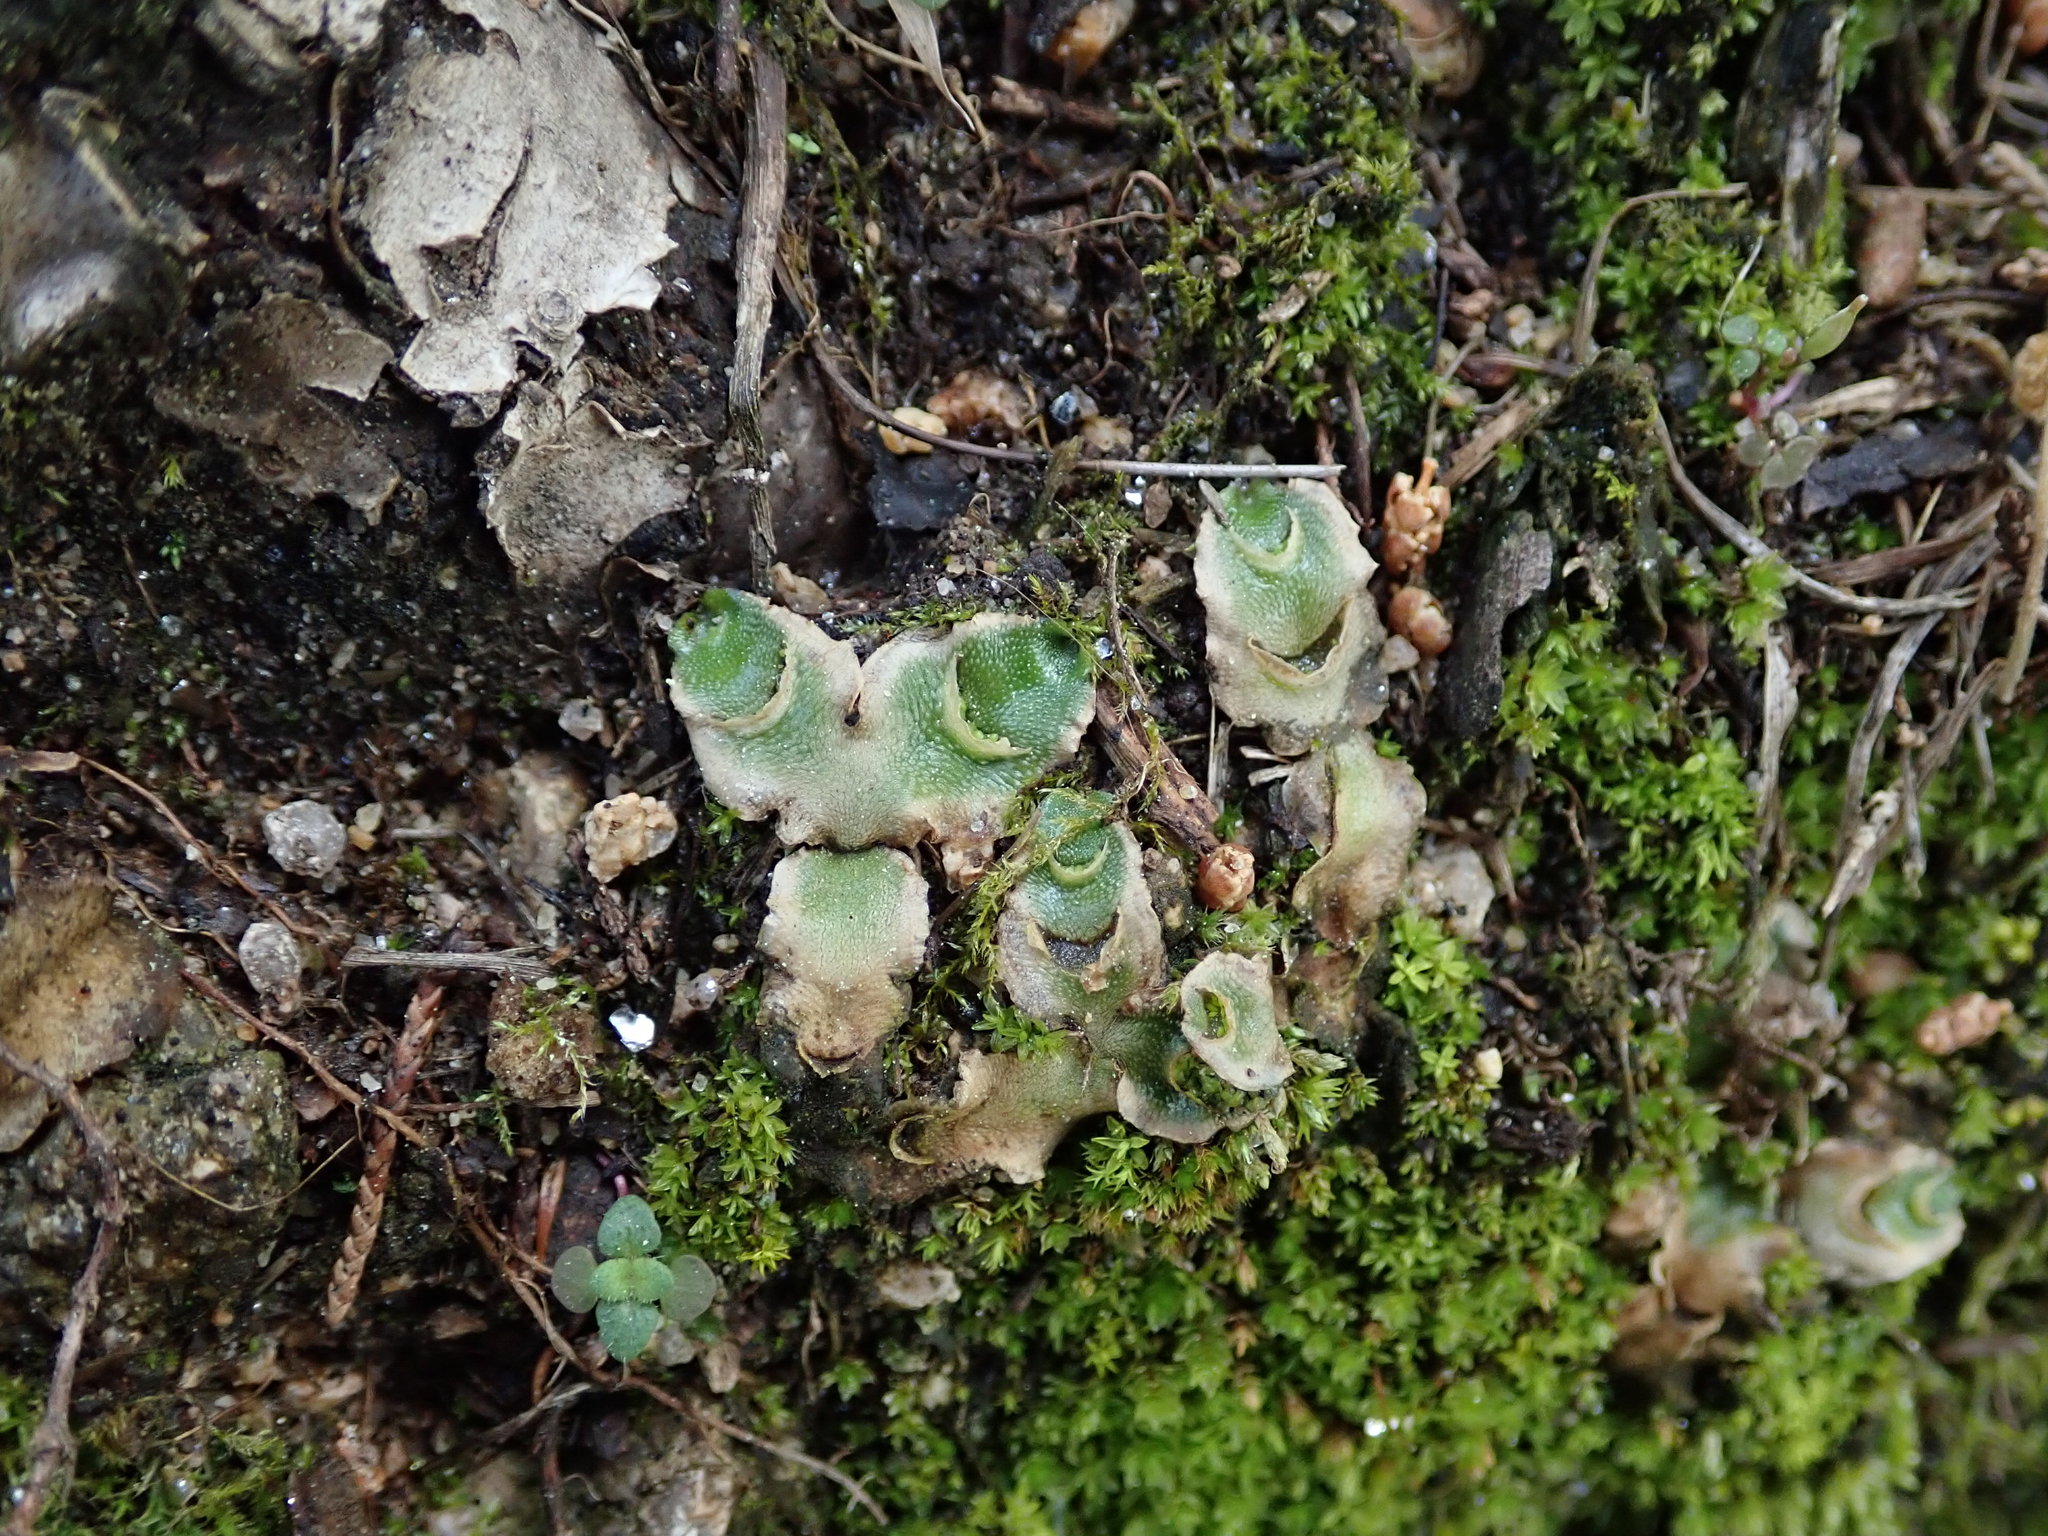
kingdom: Plantae
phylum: Marchantiophyta
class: Marchantiopsida
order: Lunulariales
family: Lunulariaceae
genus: Lunularia
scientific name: Lunularia cruciata
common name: Crescent-cup liverwort
